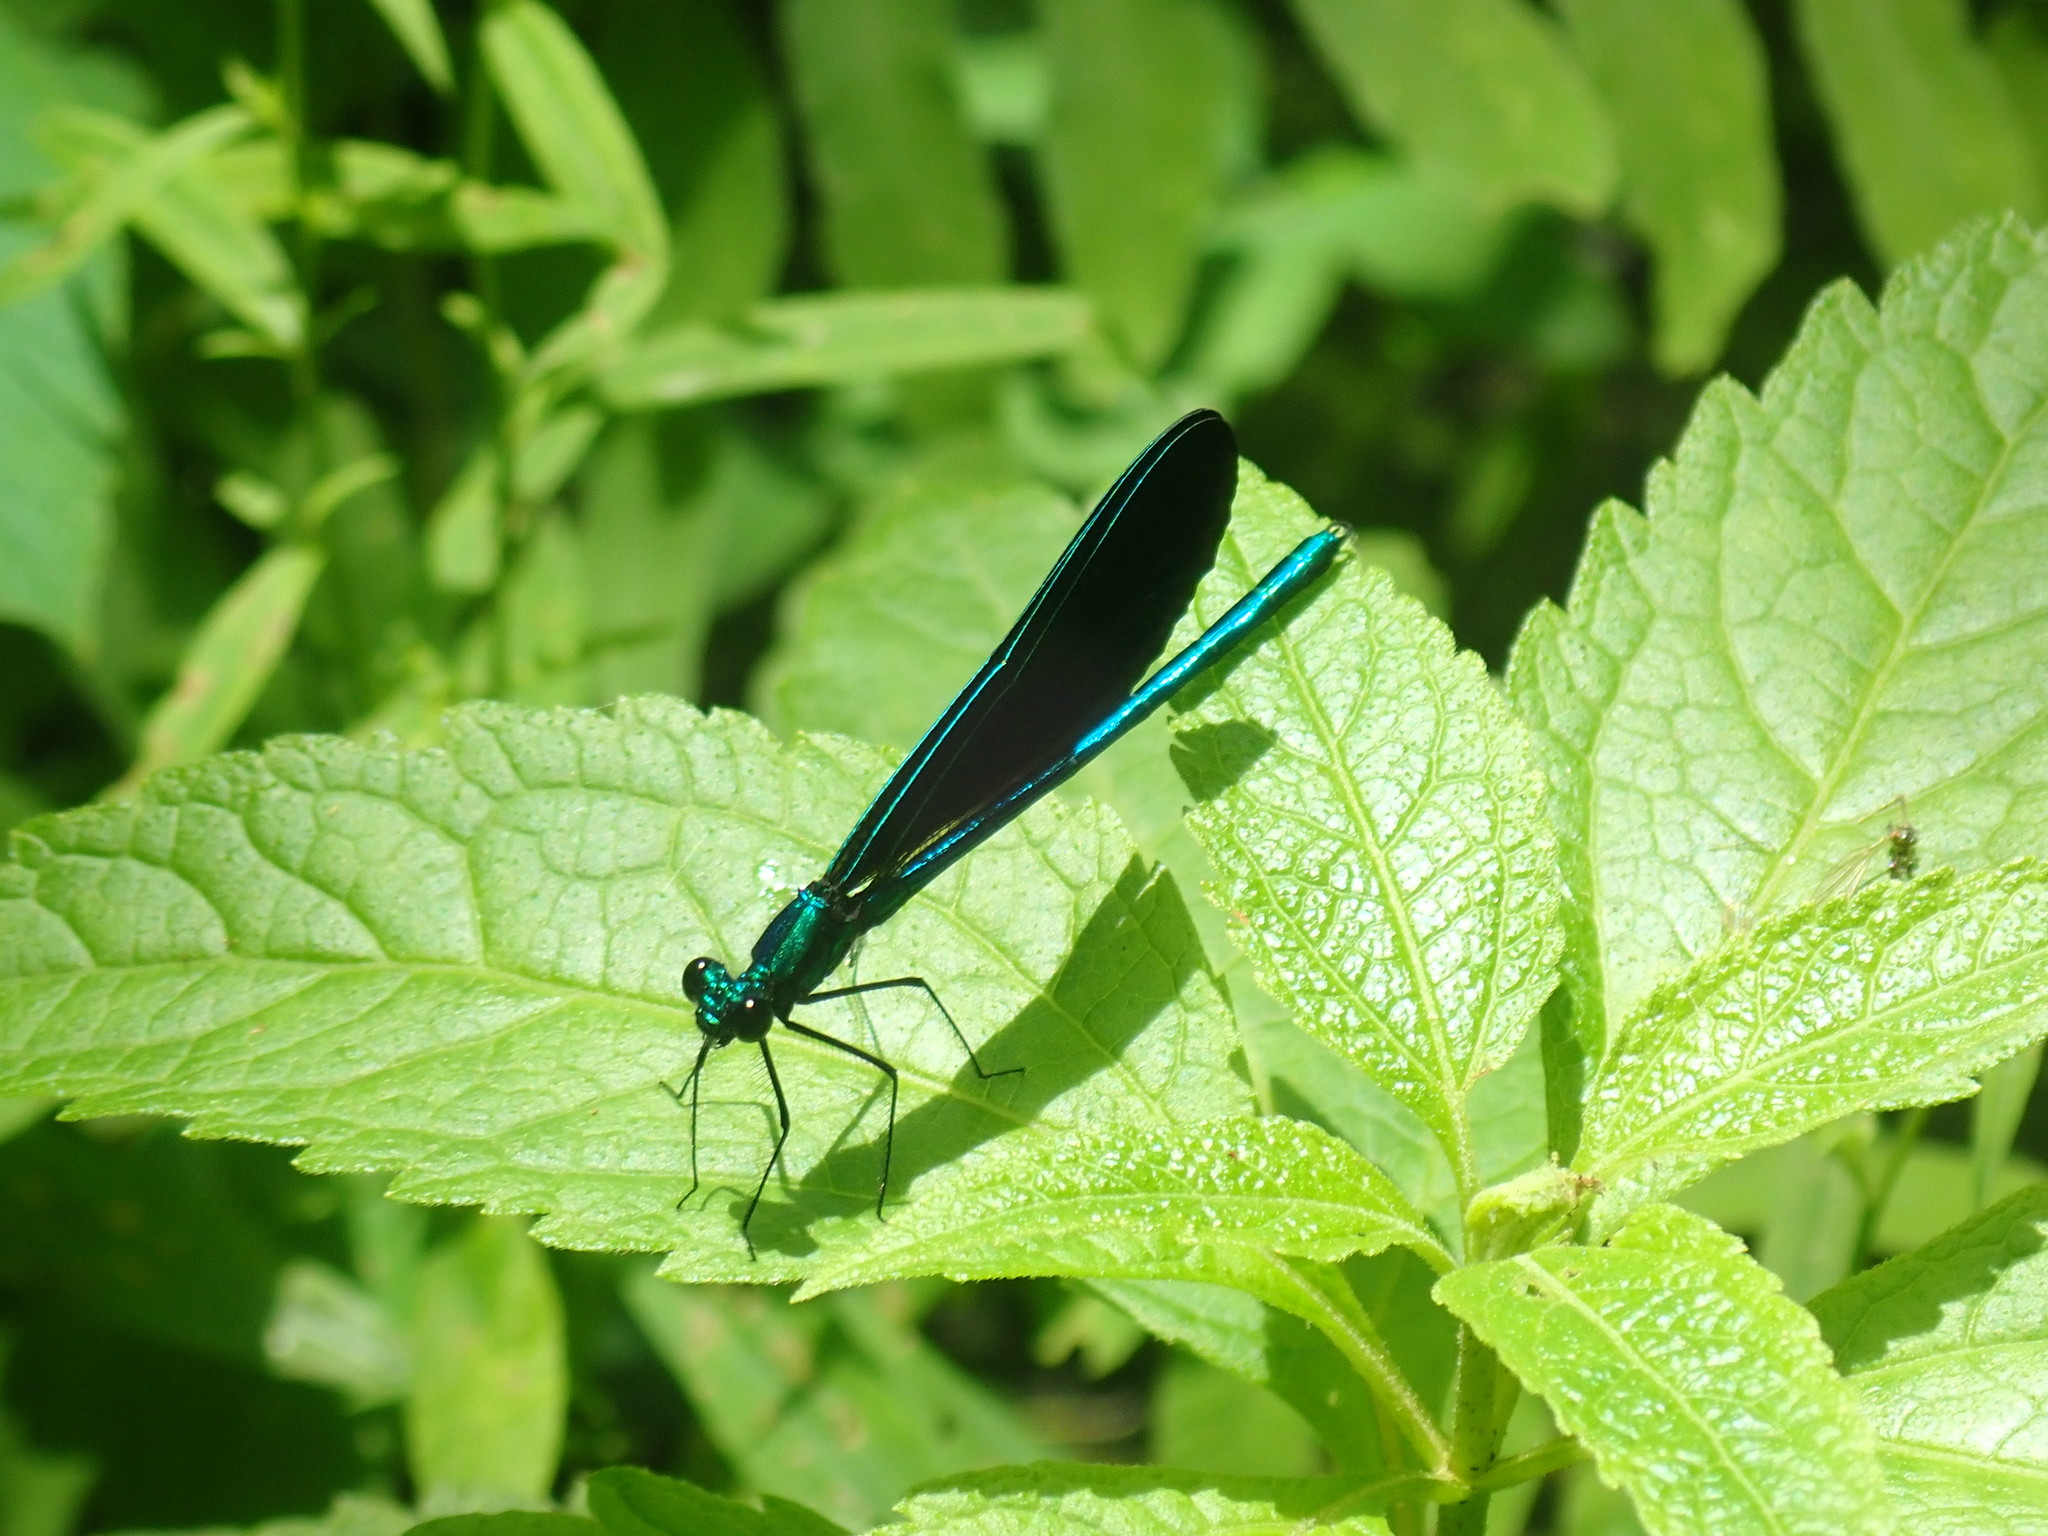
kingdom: Animalia
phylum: Arthropoda
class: Insecta
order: Odonata
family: Calopterygidae
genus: Calopteryx
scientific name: Calopteryx maculata
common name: Ebony jewelwing
